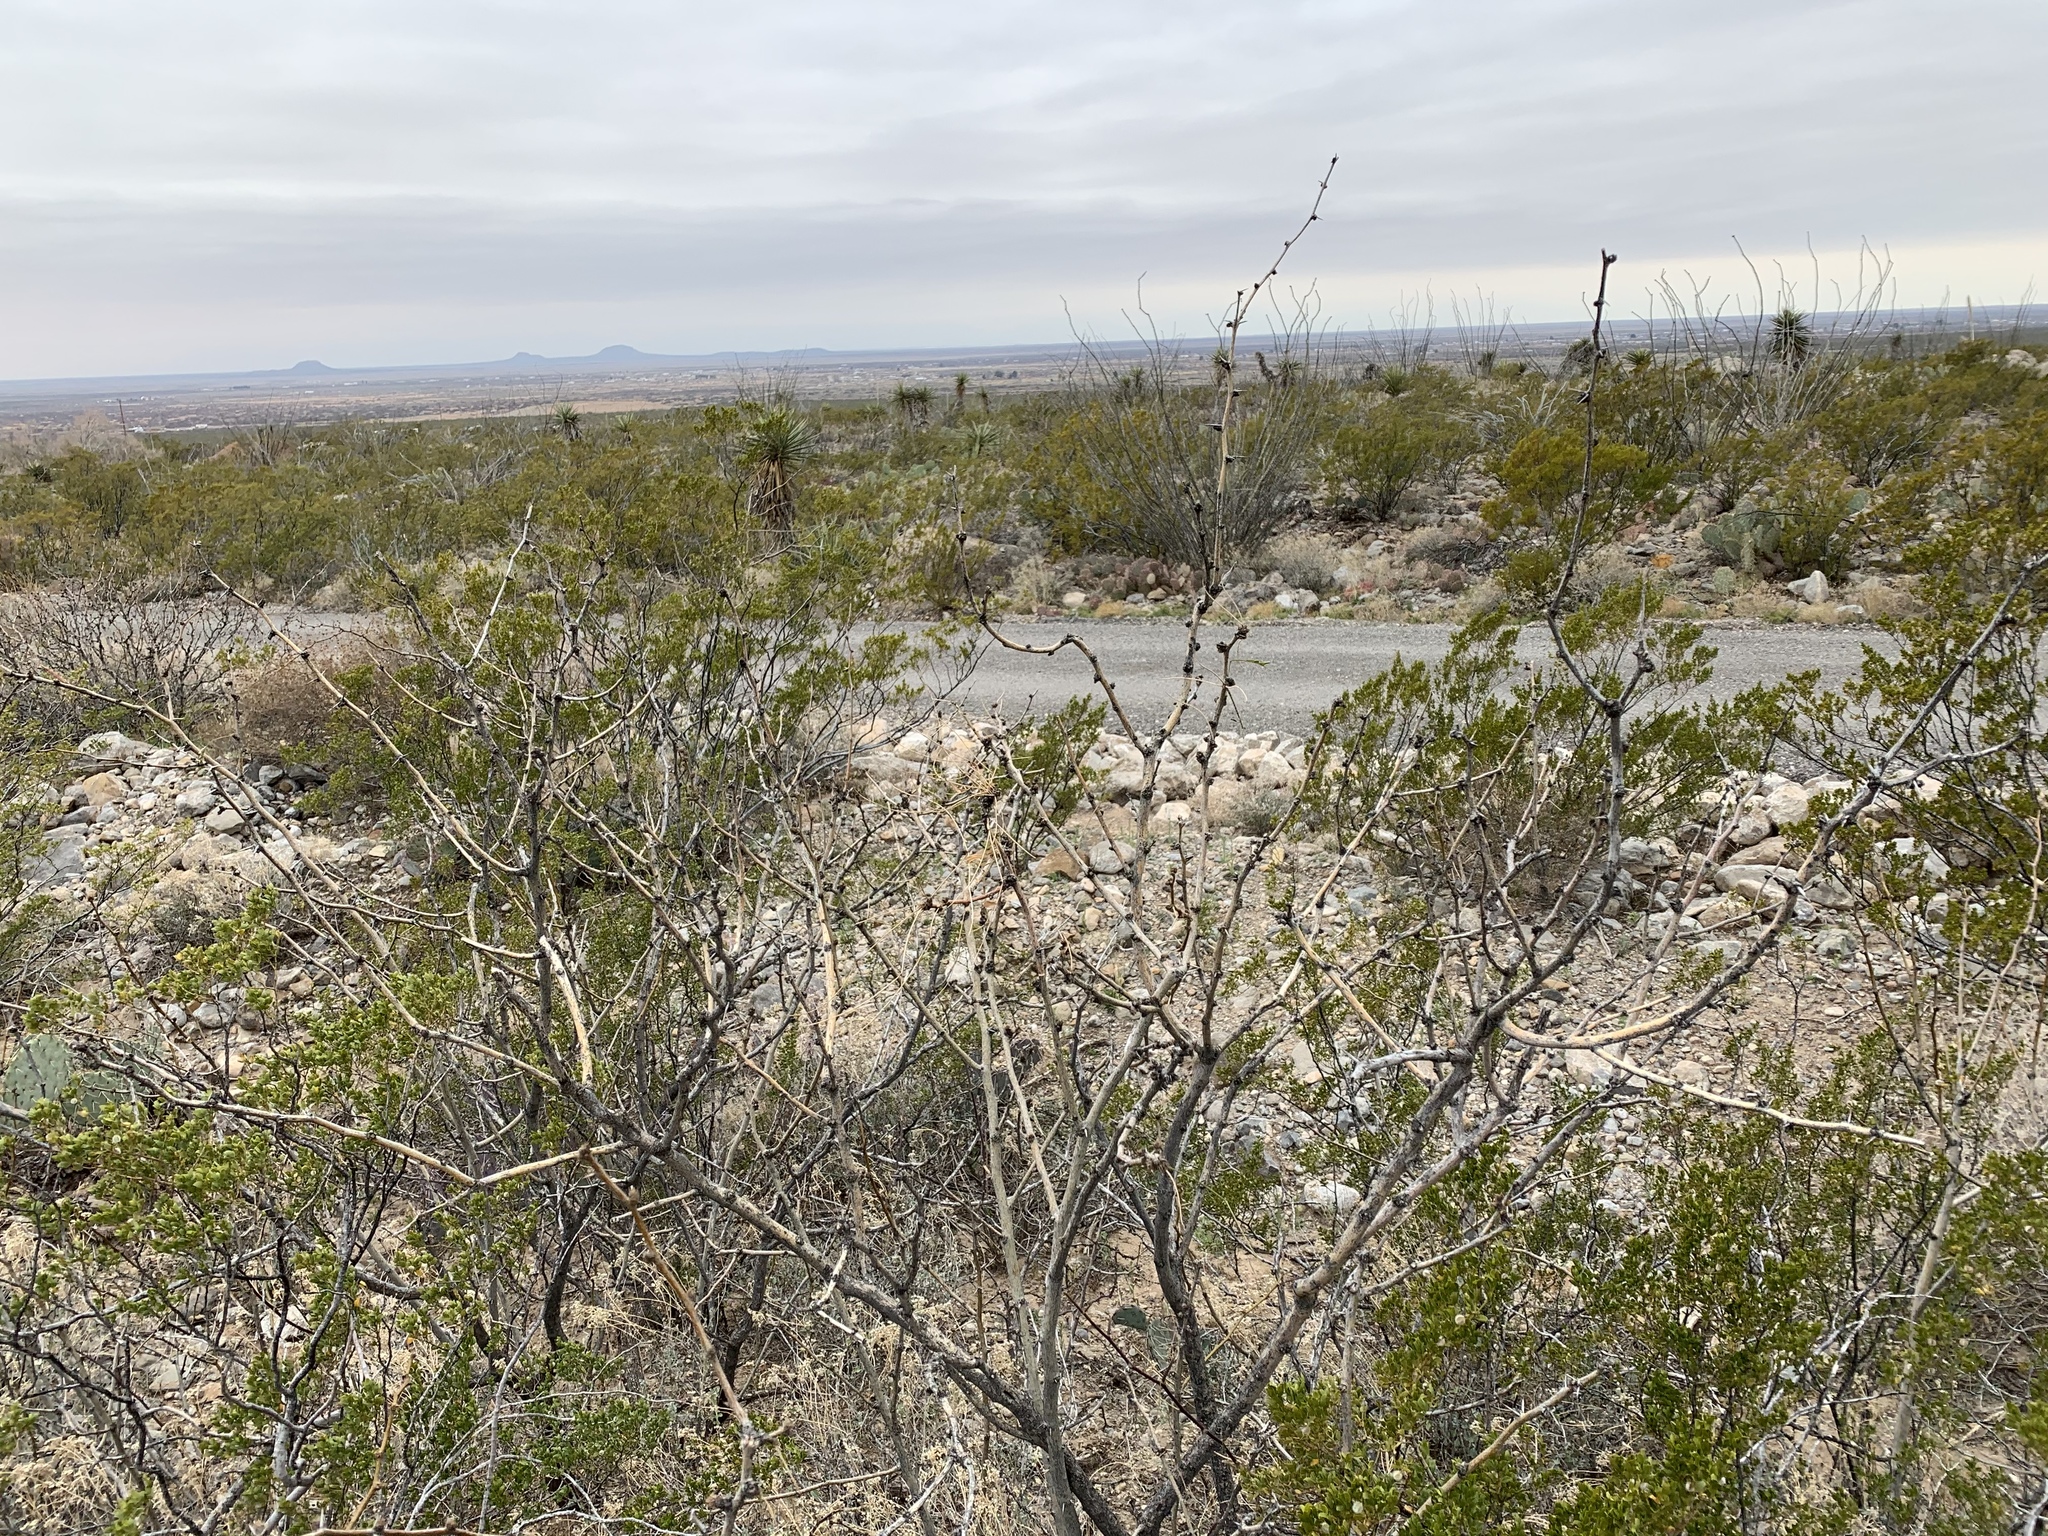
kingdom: Plantae
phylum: Tracheophyta
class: Magnoliopsida
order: Zygophyllales
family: Zygophyllaceae
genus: Larrea
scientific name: Larrea tridentata
